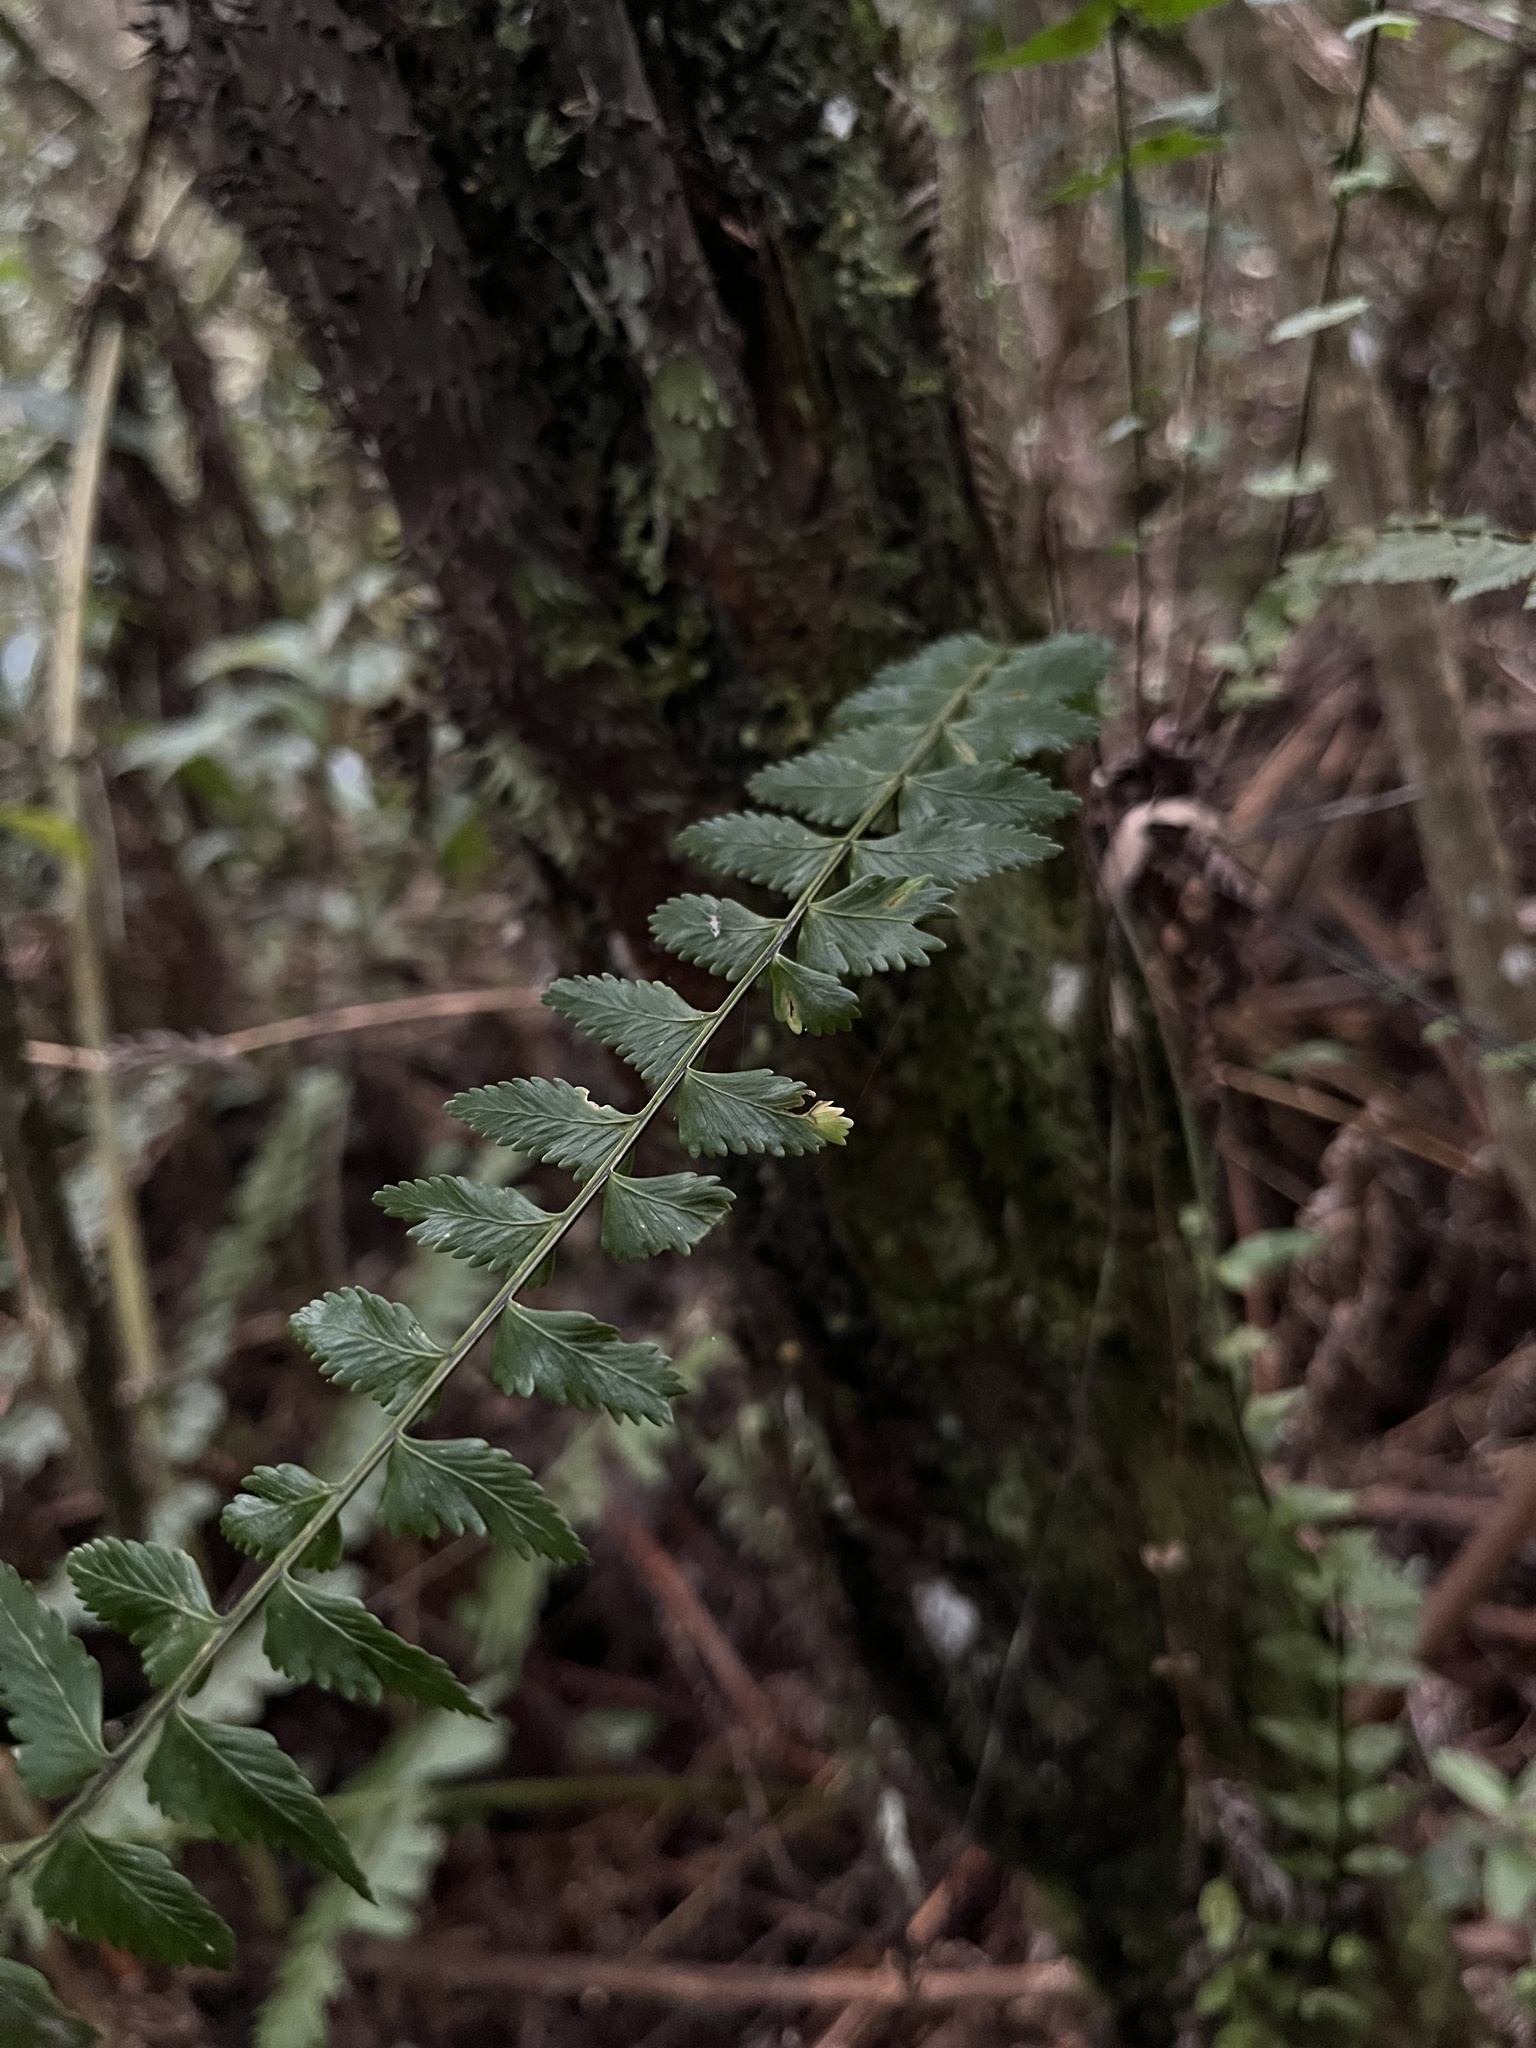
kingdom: Plantae
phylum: Tracheophyta
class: Polypodiopsida
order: Polypodiales
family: Aspleniaceae
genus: Asplenium
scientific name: Asplenium harpeodes
